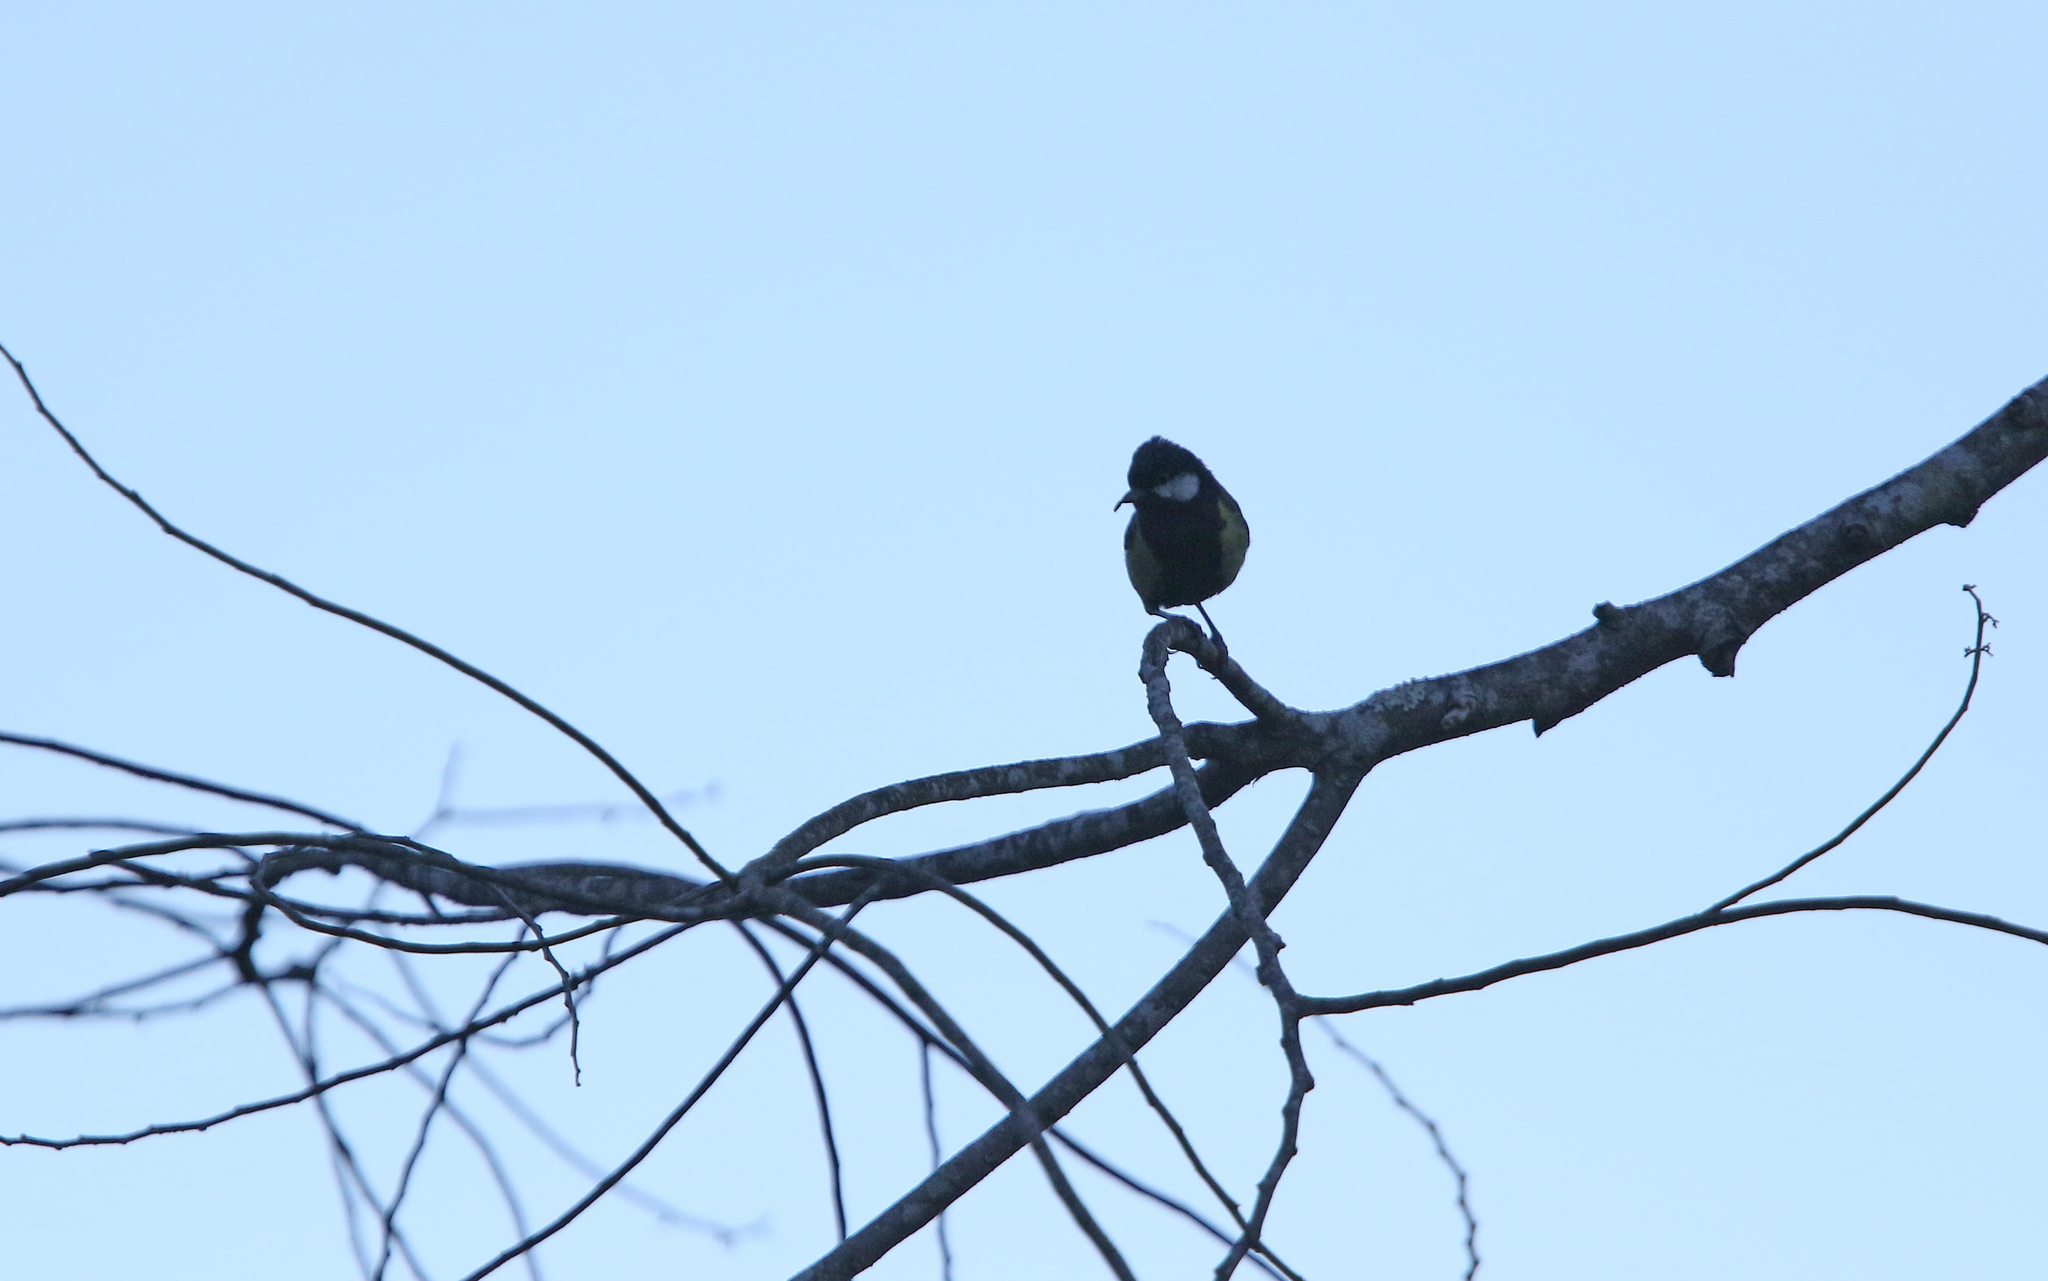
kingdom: Animalia
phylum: Chordata
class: Aves
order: Passeriformes
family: Paridae
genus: Parus
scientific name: Parus monticolus
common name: Green-backed tit
